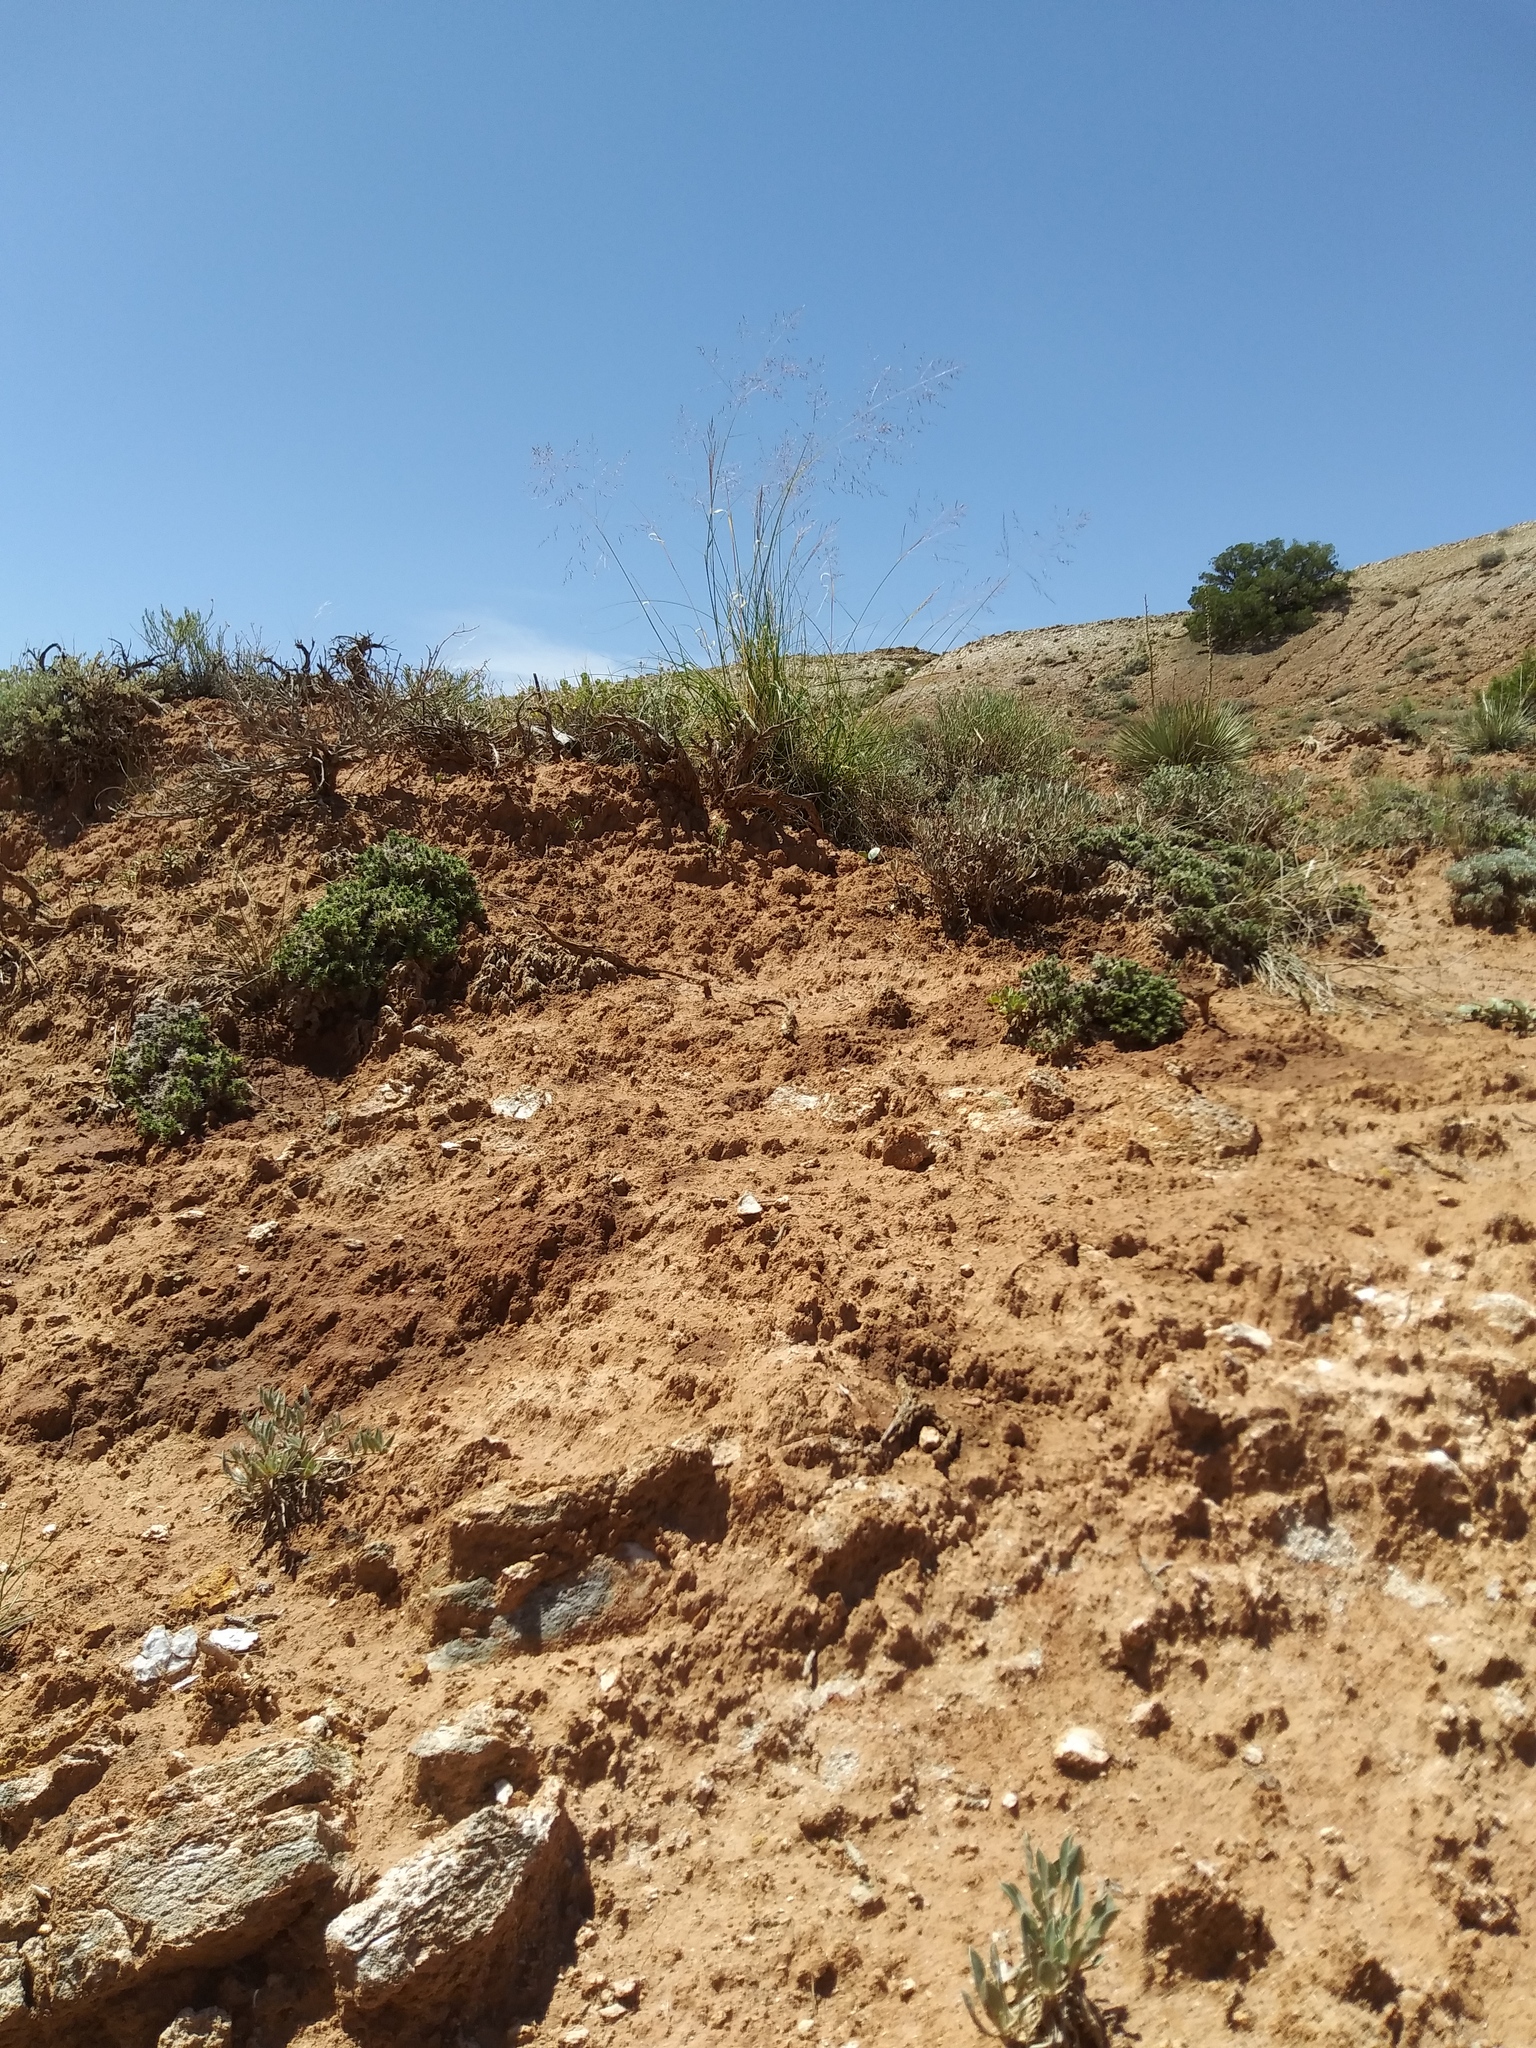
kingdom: Plantae
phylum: Tracheophyta
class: Liliopsida
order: Poales
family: Poaceae
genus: Sporobolus
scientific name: Sporobolus airoides
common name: Alkali sacaton
